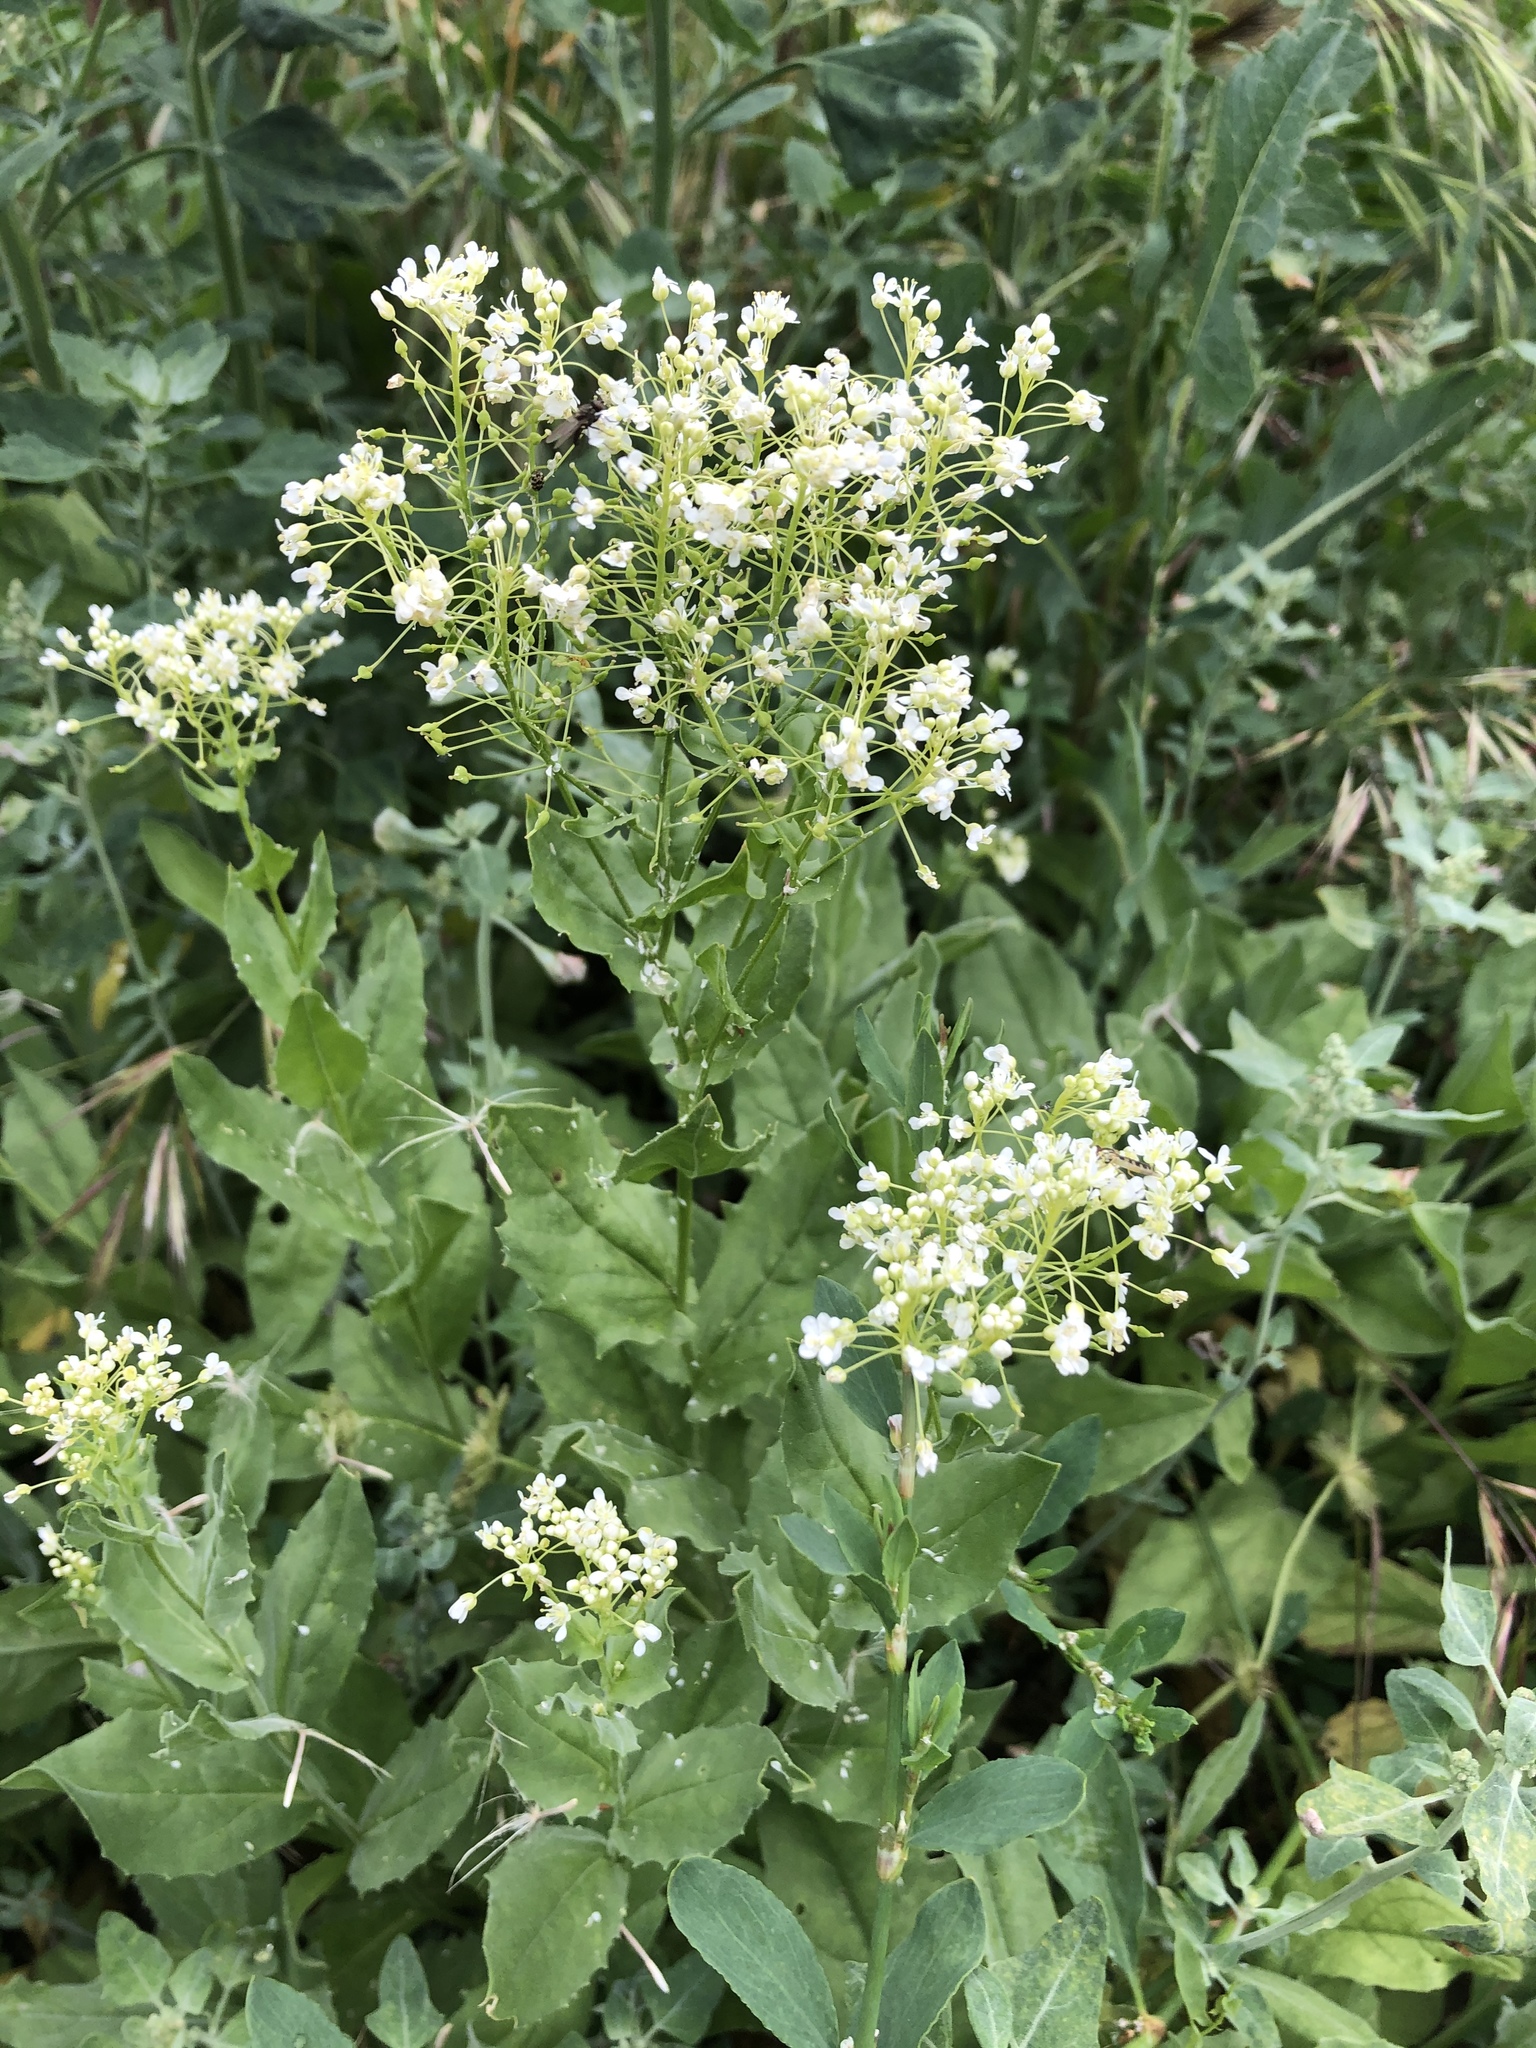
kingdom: Plantae
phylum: Tracheophyta
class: Magnoliopsida
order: Brassicales
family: Brassicaceae
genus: Lepidium
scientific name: Lepidium draba
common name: Hoary cress
